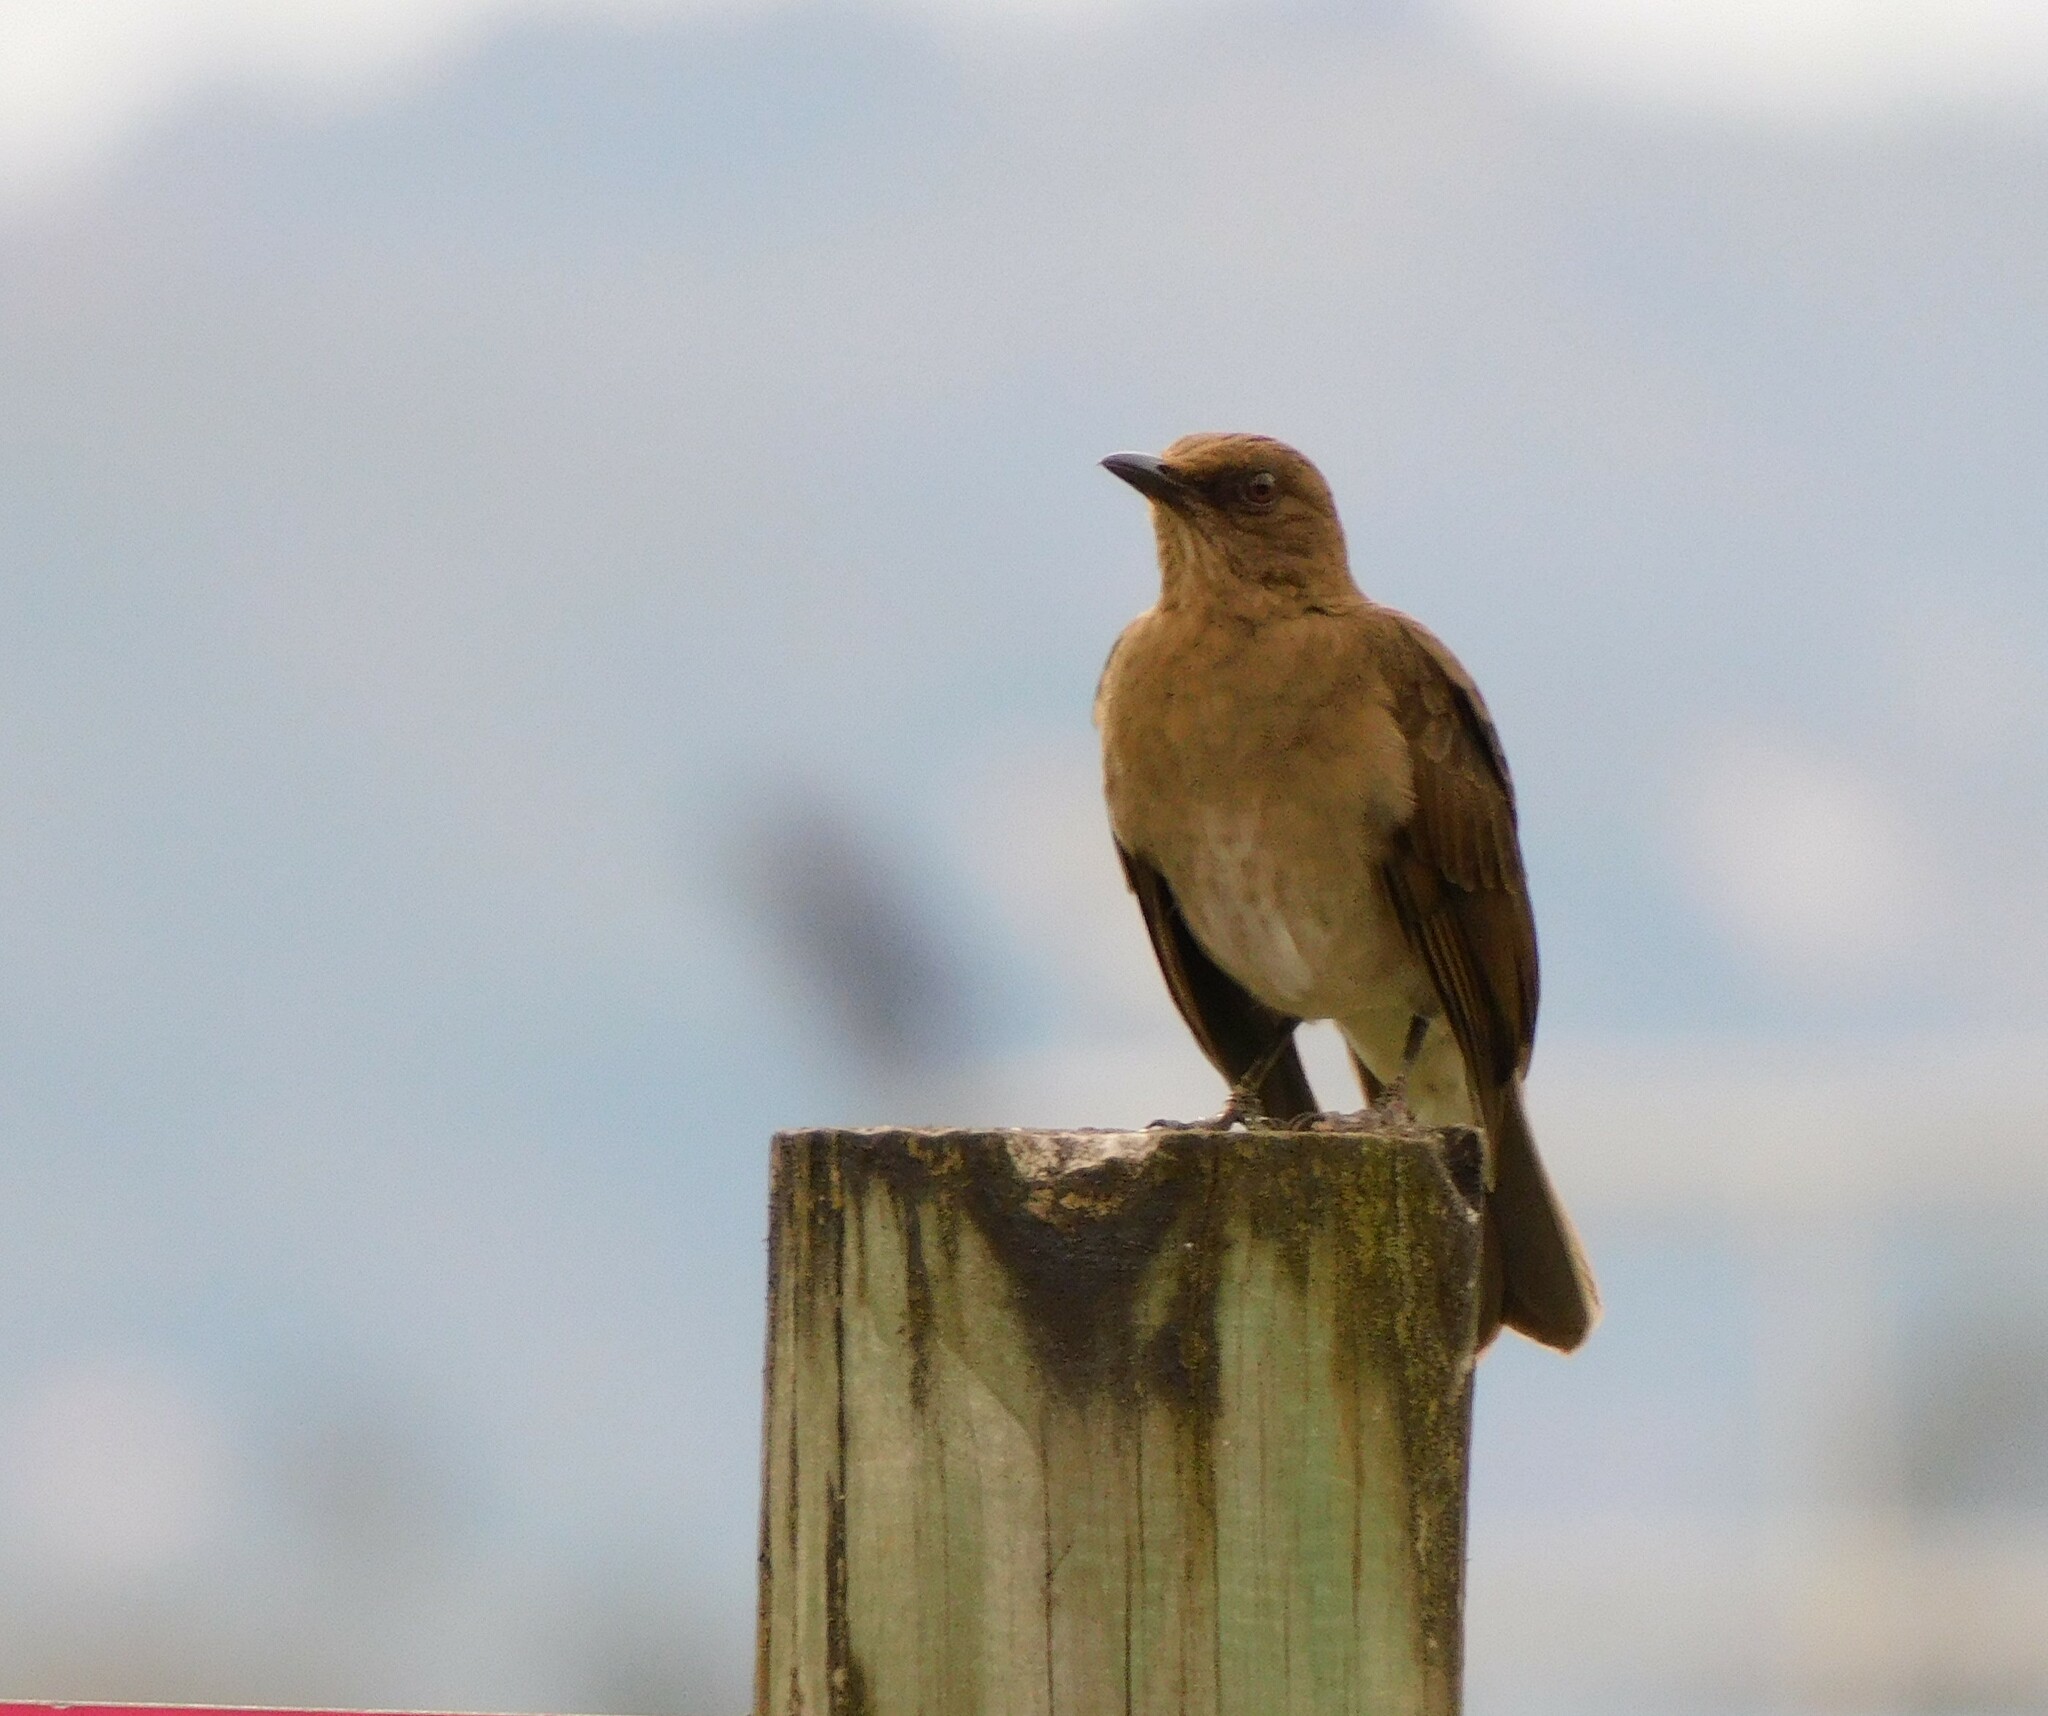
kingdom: Animalia
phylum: Chordata
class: Aves
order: Passeriformes
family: Turdidae
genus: Turdus
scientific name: Turdus ignobilis
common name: Black-billed thrush
